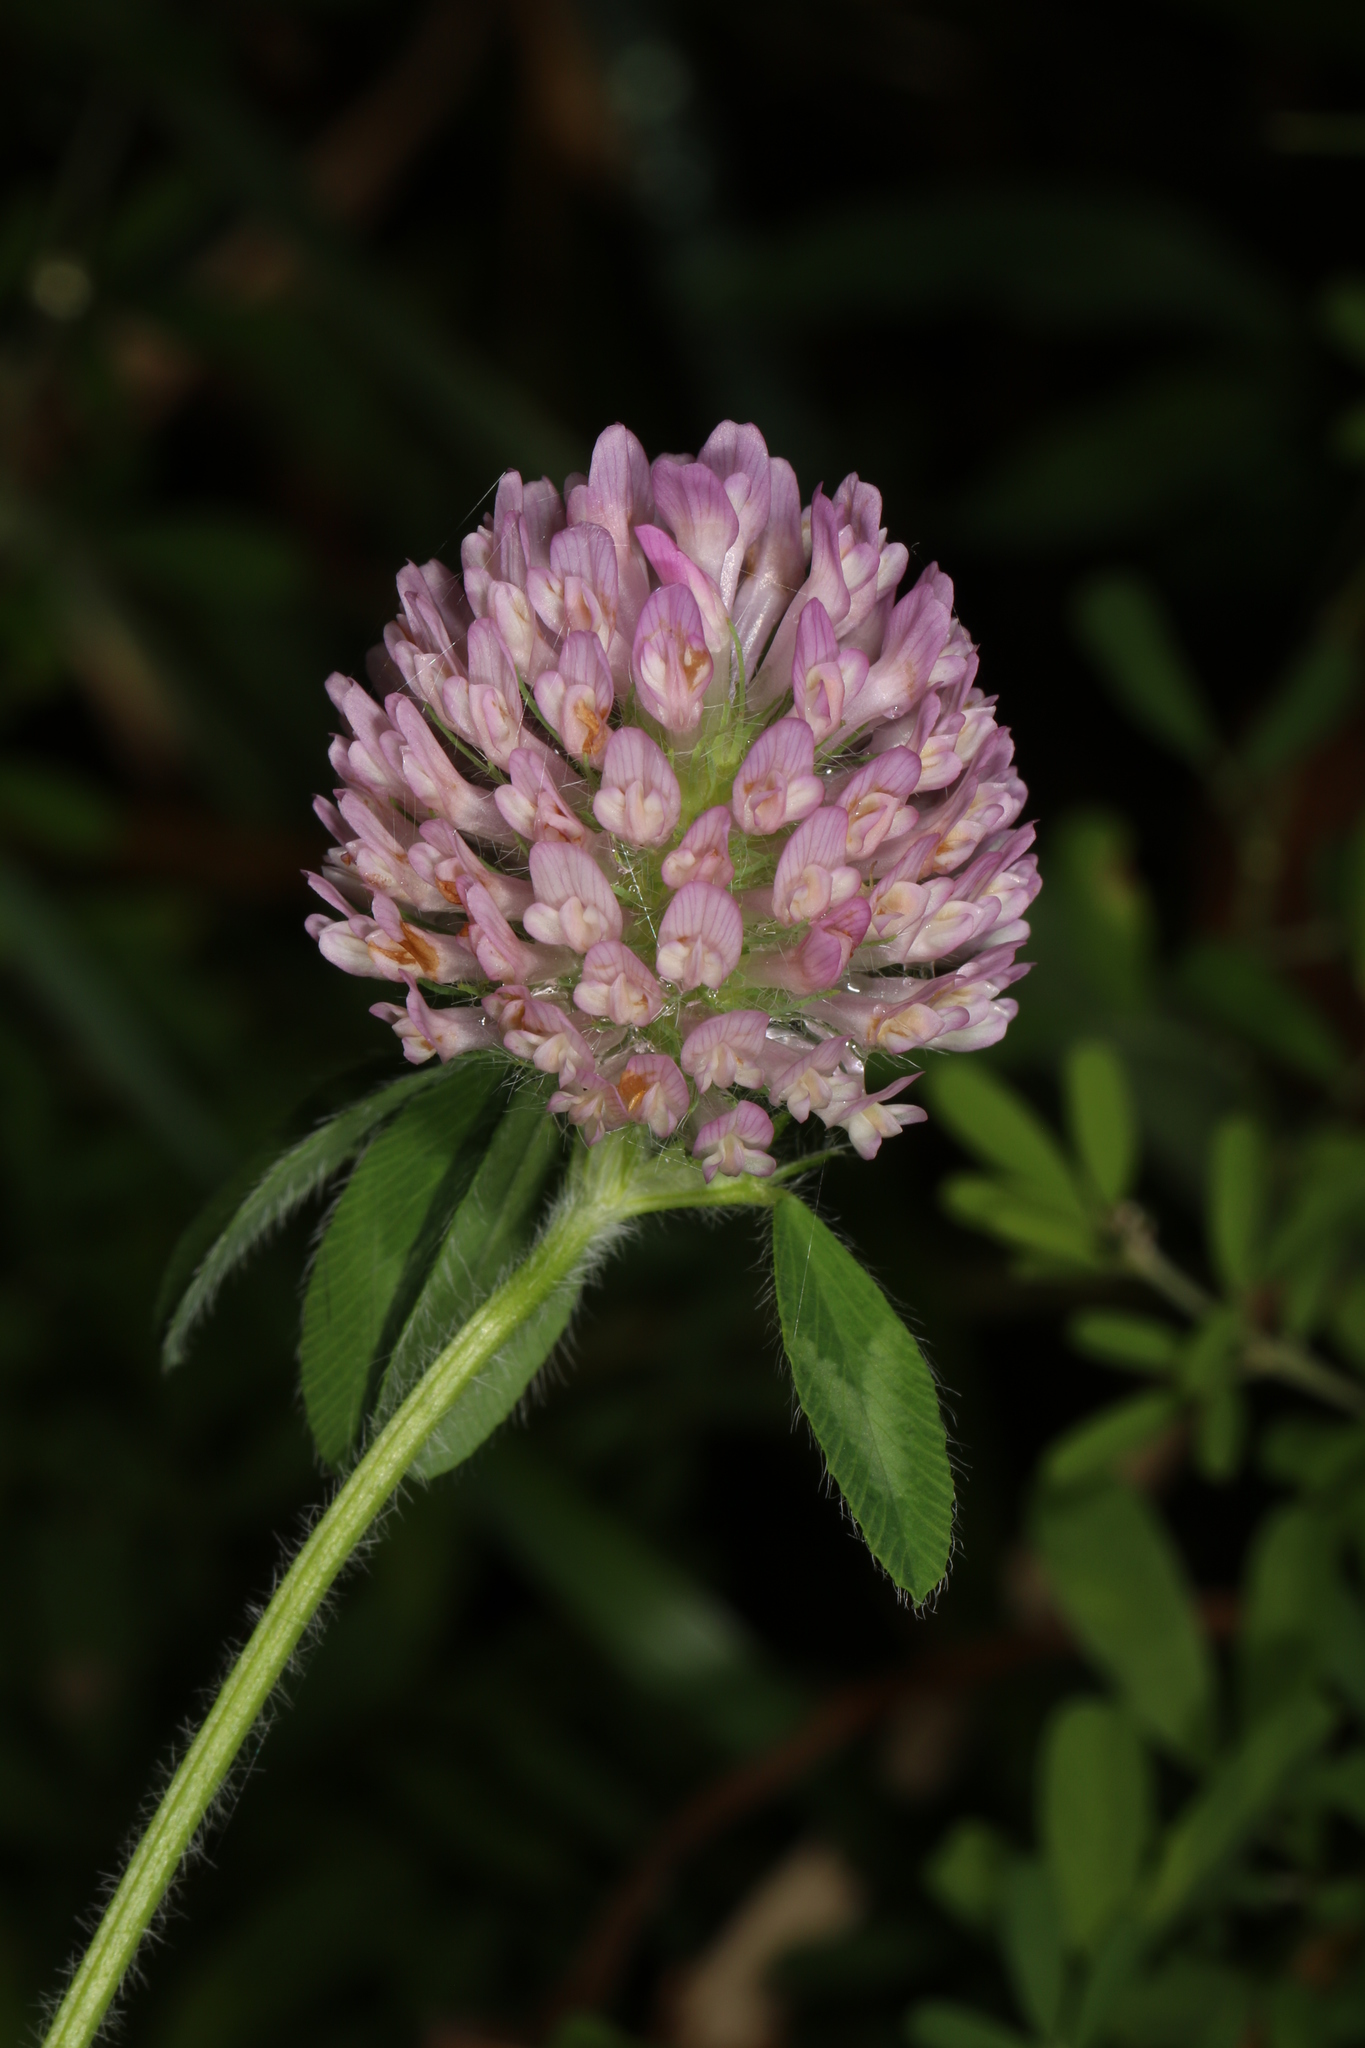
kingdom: Plantae
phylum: Tracheophyta
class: Magnoliopsida
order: Fabales
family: Fabaceae
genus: Trifolium
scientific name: Trifolium pratense
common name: Red clover
